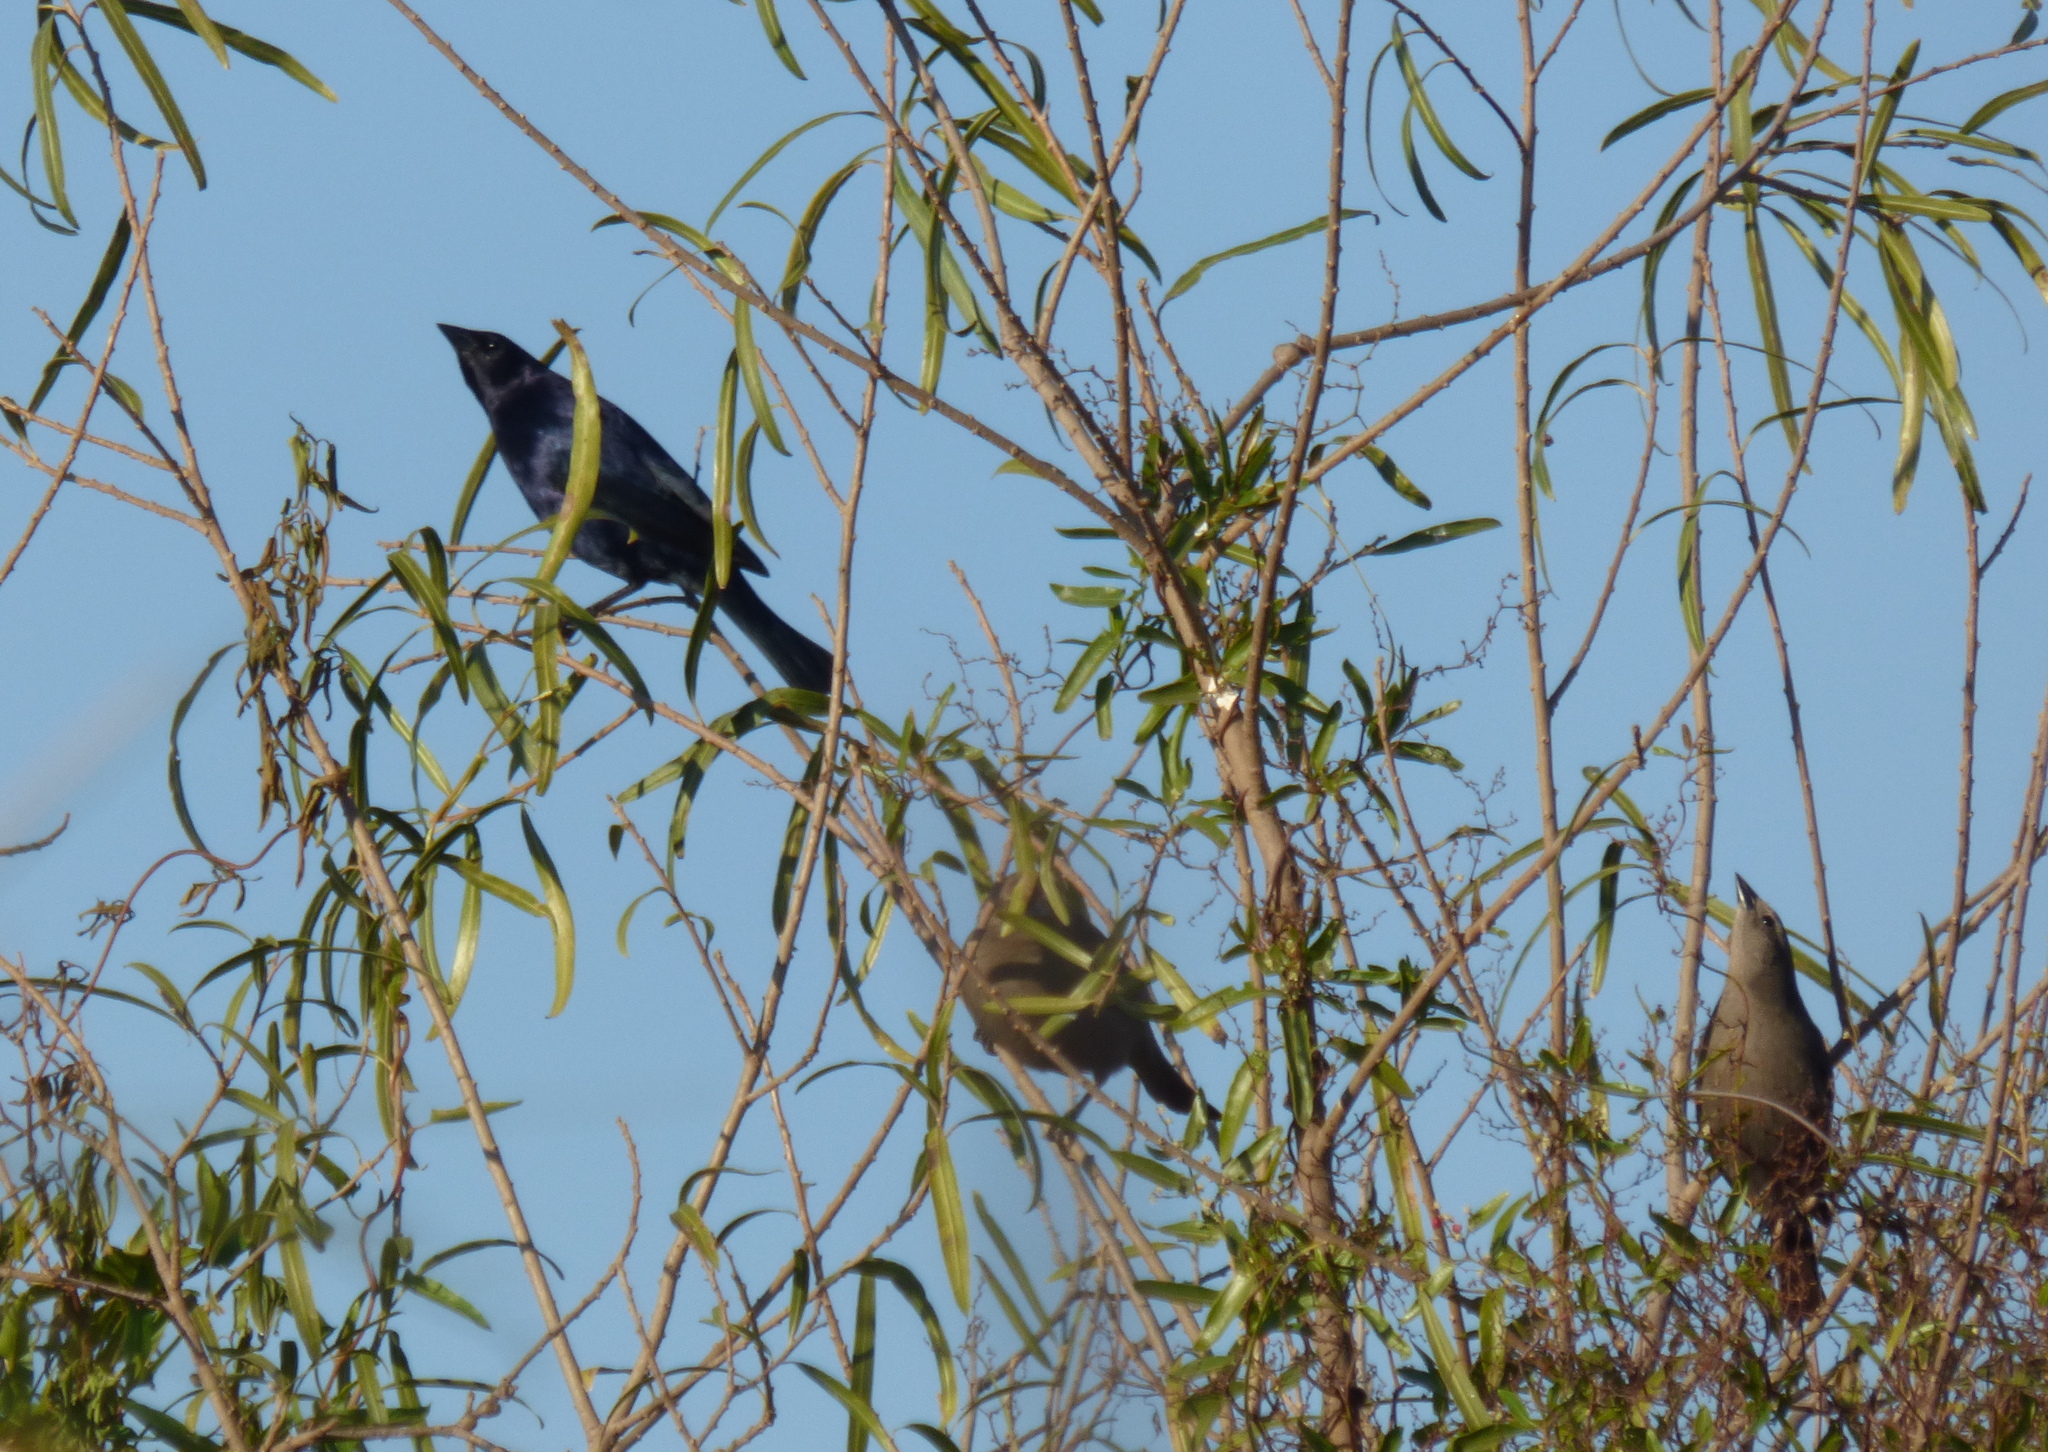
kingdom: Animalia
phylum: Chordata
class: Aves
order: Passeriformes
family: Icteridae
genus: Molothrus
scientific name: Molothrus bonariensis
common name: Shiny cowbird
